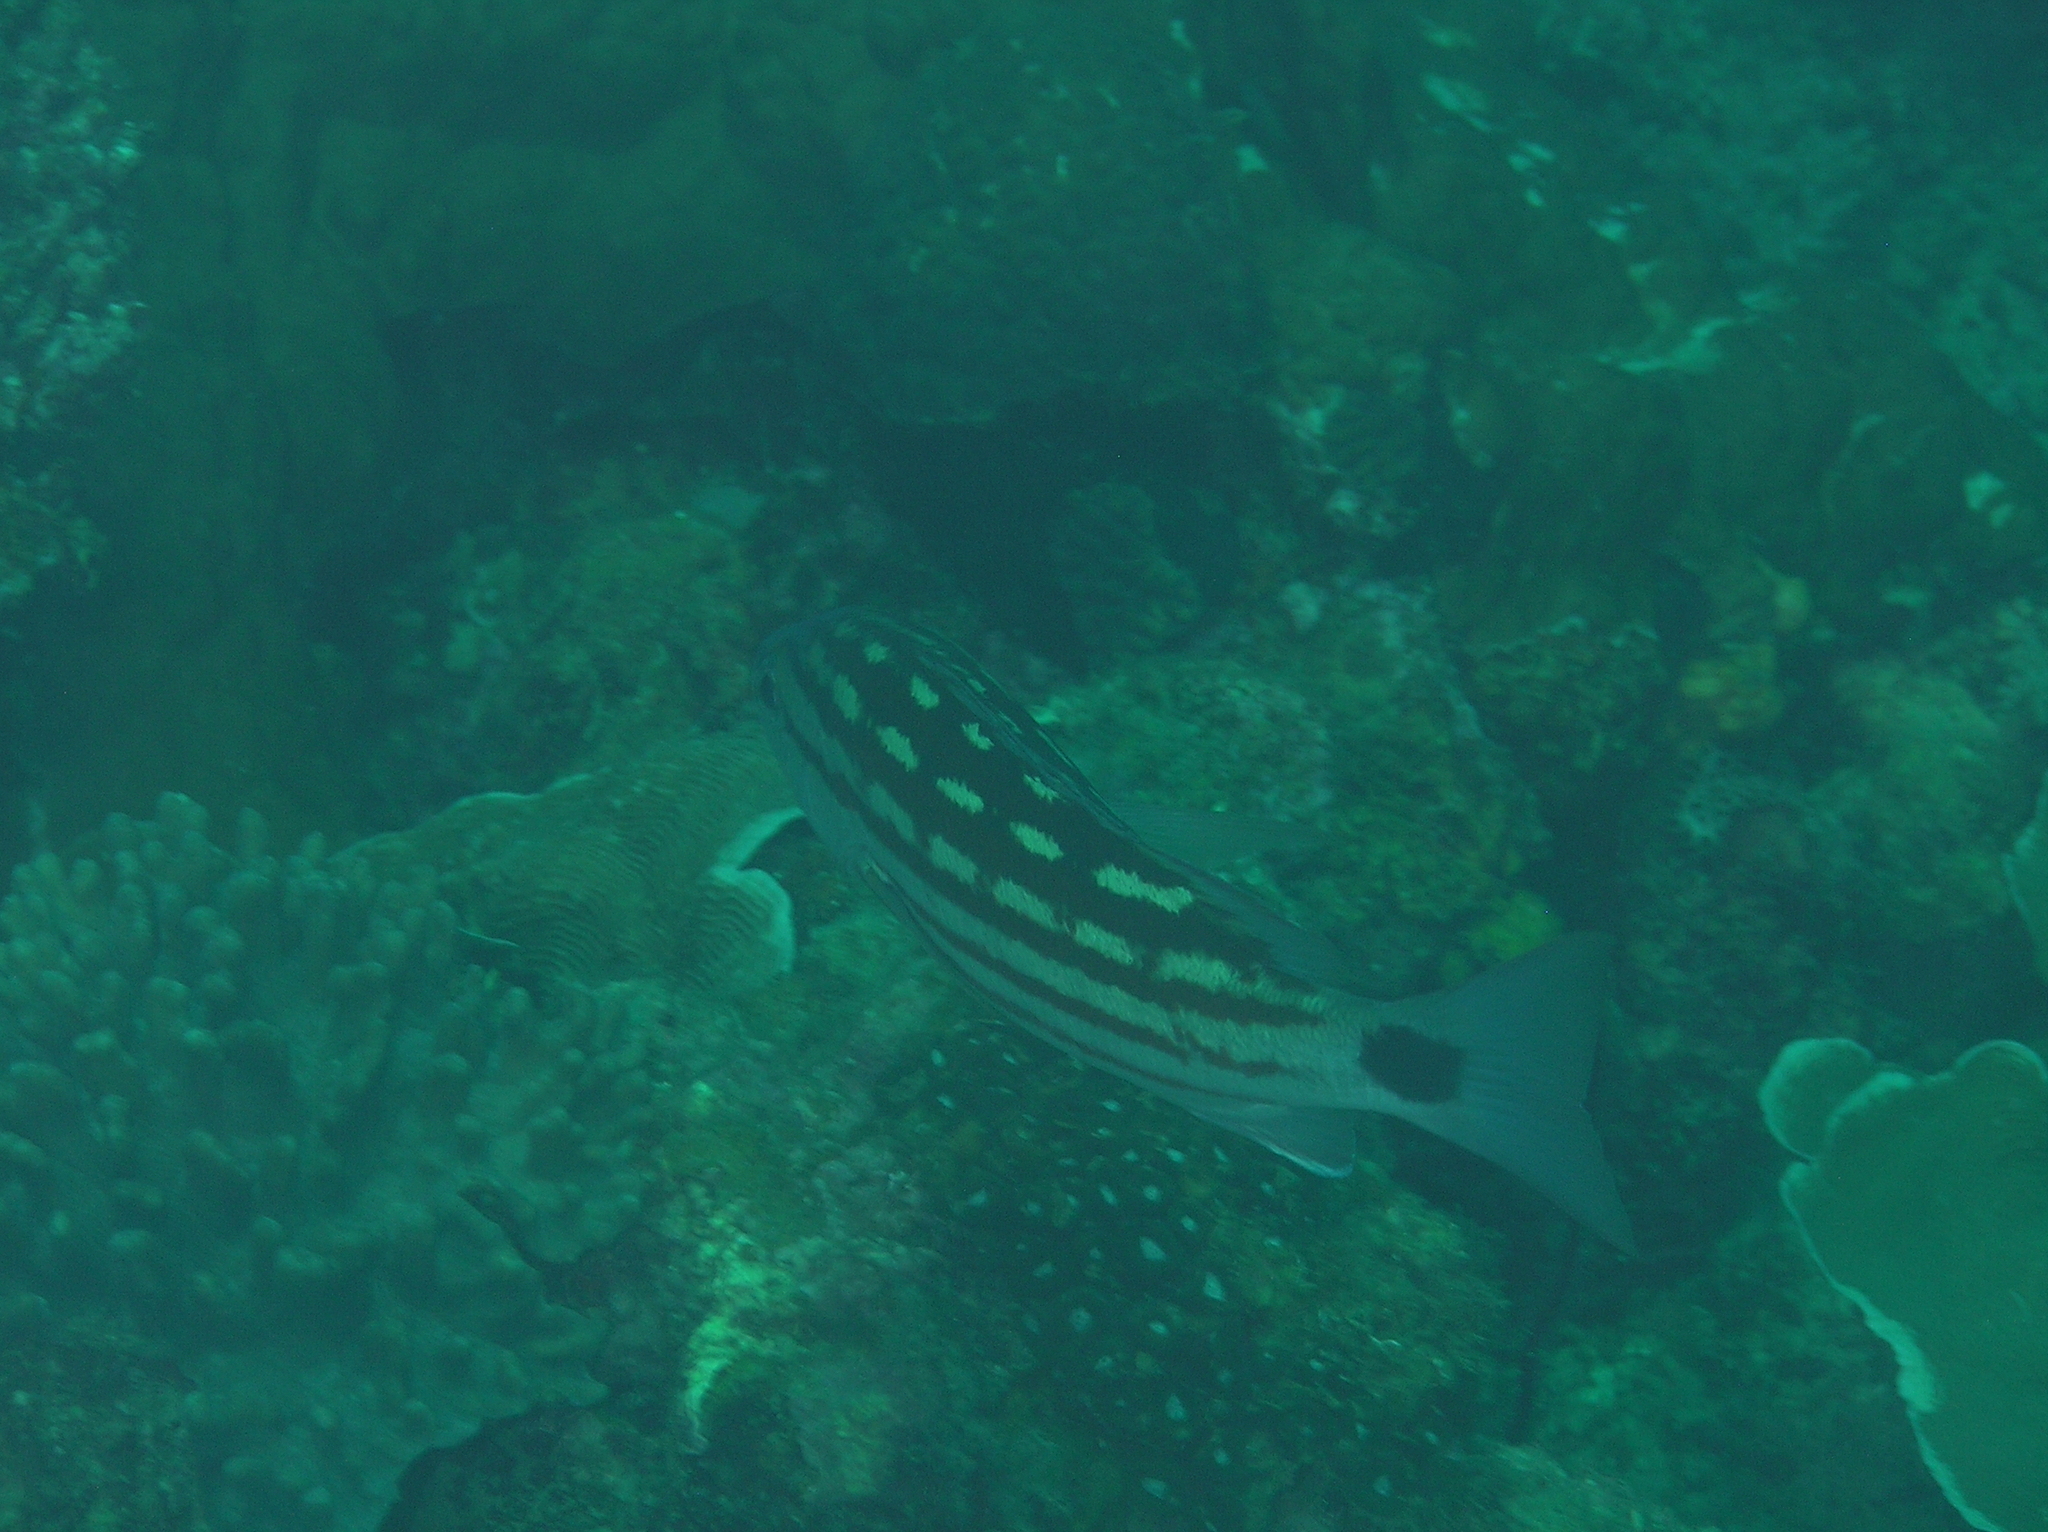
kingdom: Animalia
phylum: Chordata
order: Perciformes
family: Lutjanidae
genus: Lutjanus
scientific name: Lutjanus decussatus
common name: Checkered snapper
